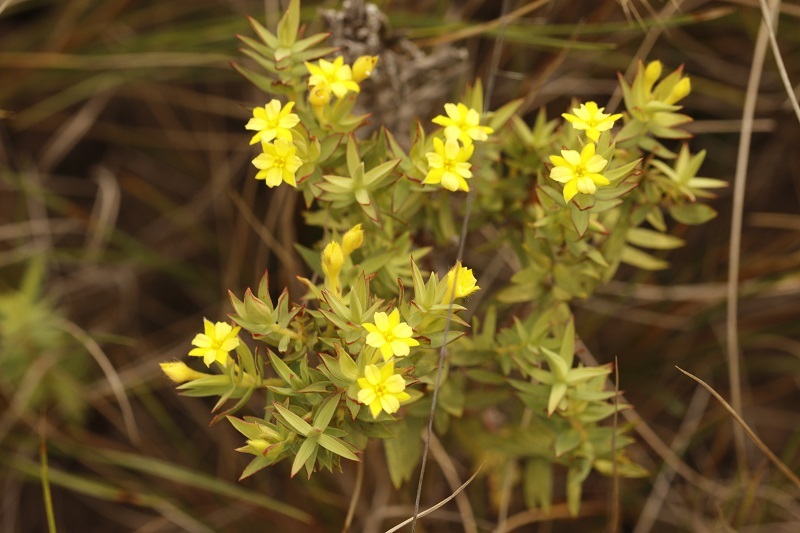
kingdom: Plantae
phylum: Tracheophyta
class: Magnoliopsida
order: Malvales
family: Thymelaeaceae
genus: Gnidia
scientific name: Gnidia juniperifolia
